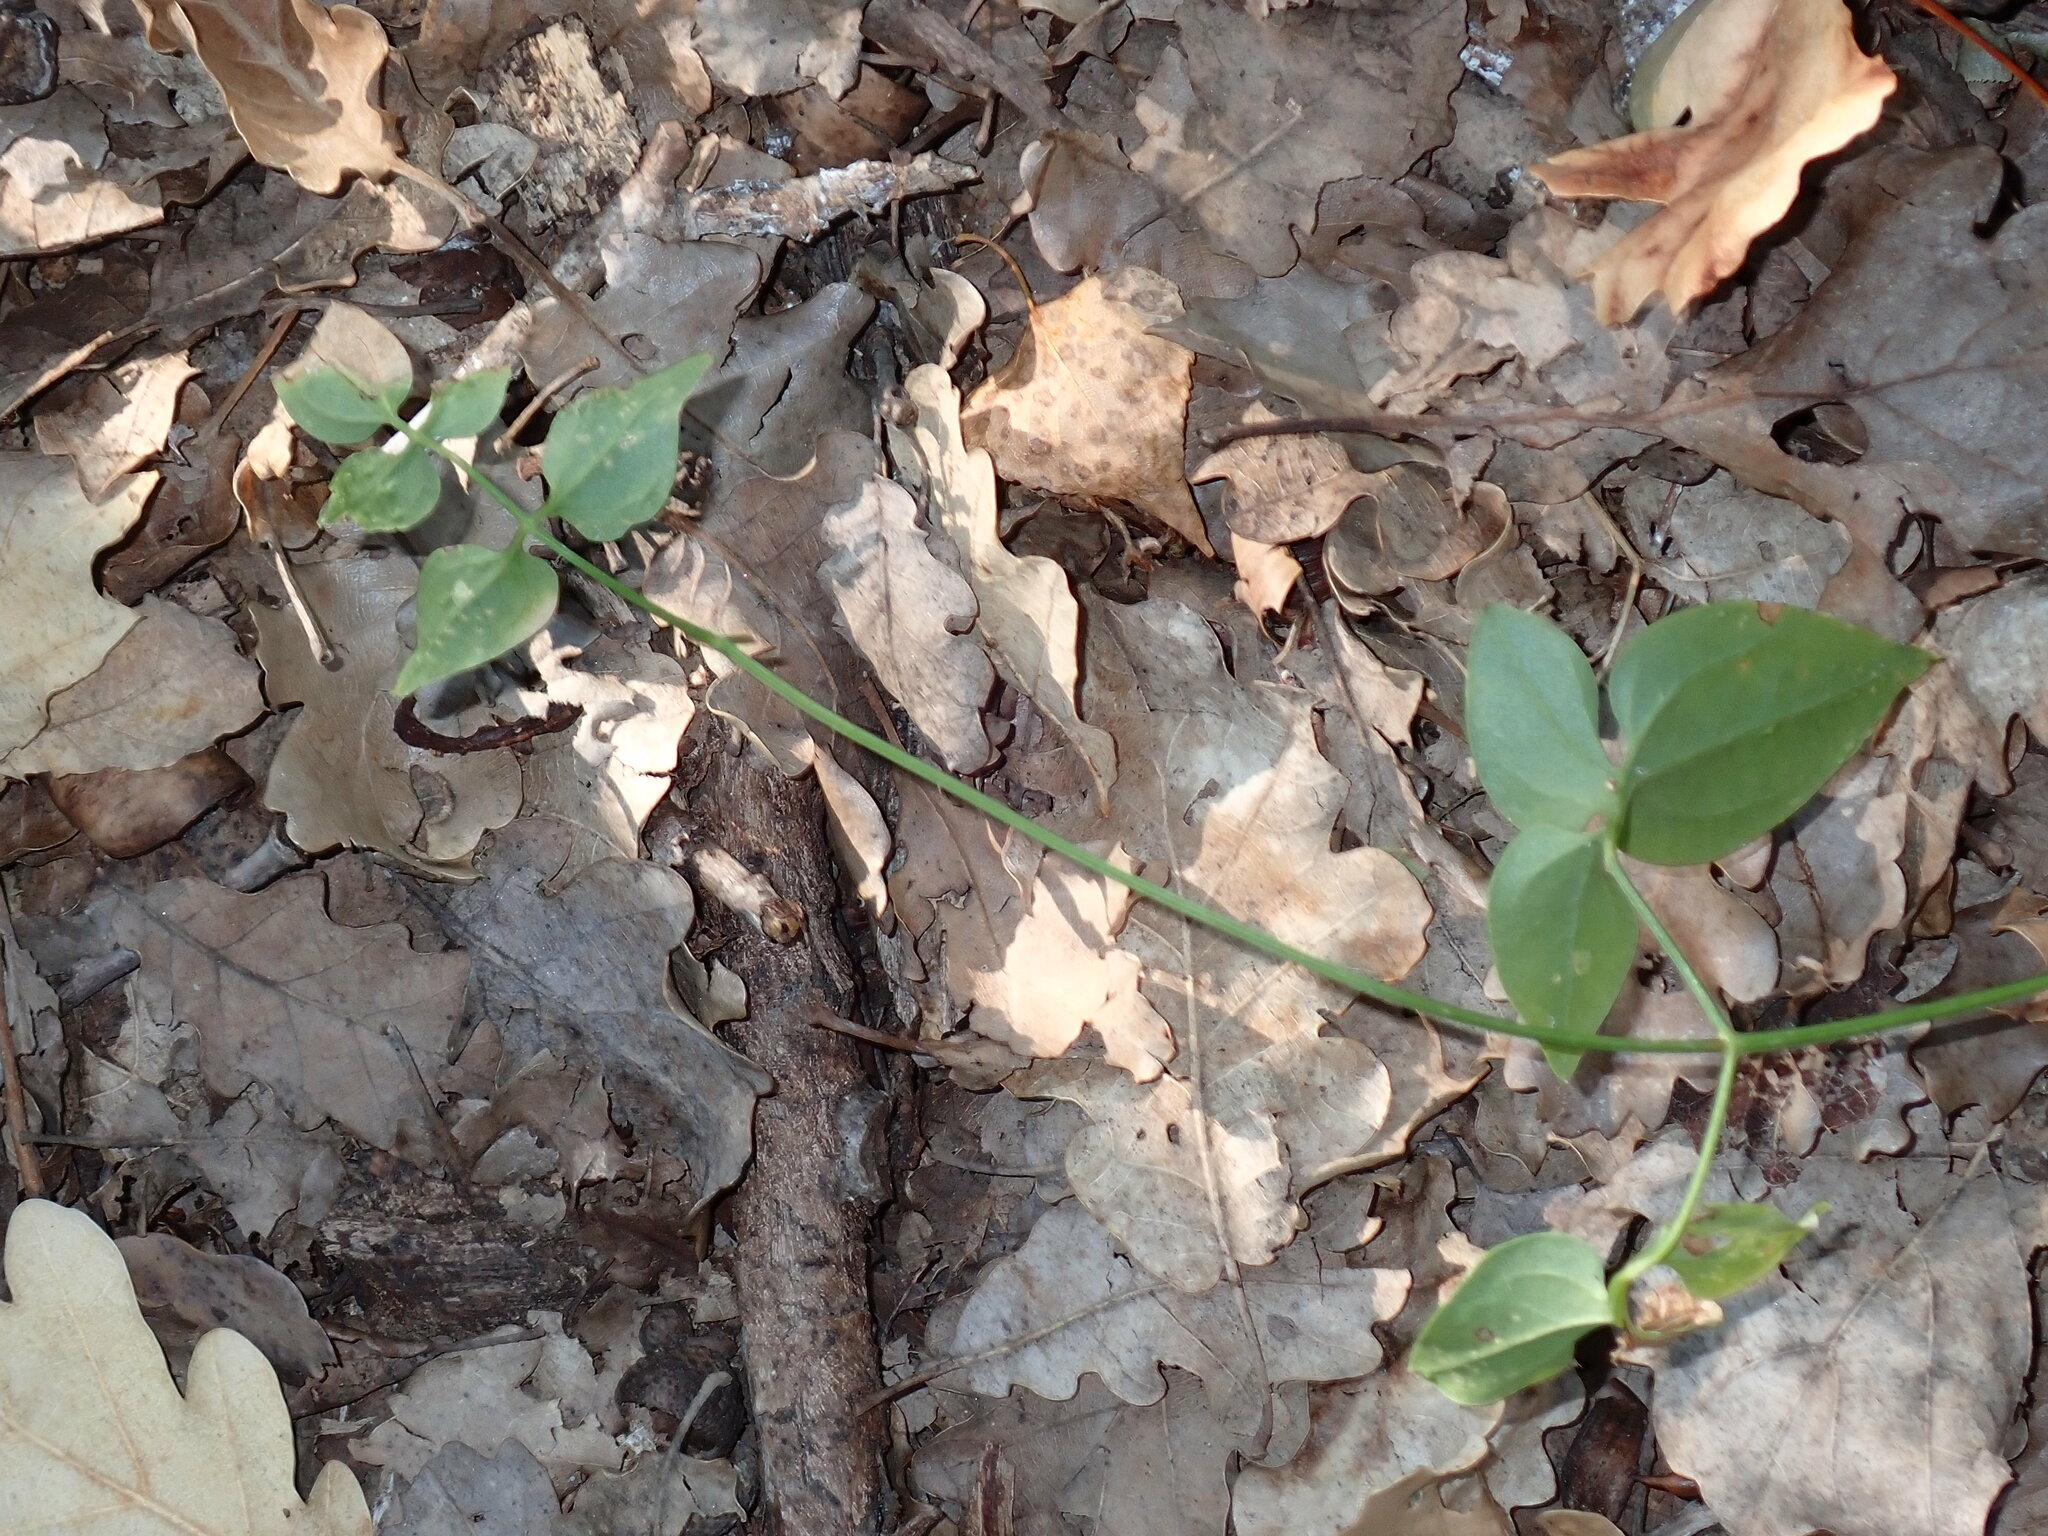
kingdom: Plantae
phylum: Tracheophyta
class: Magnoliopsida
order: Ranunculales
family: Ranunculaceae
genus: Clematis
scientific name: Clematis flammula
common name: Virgin's-bower
